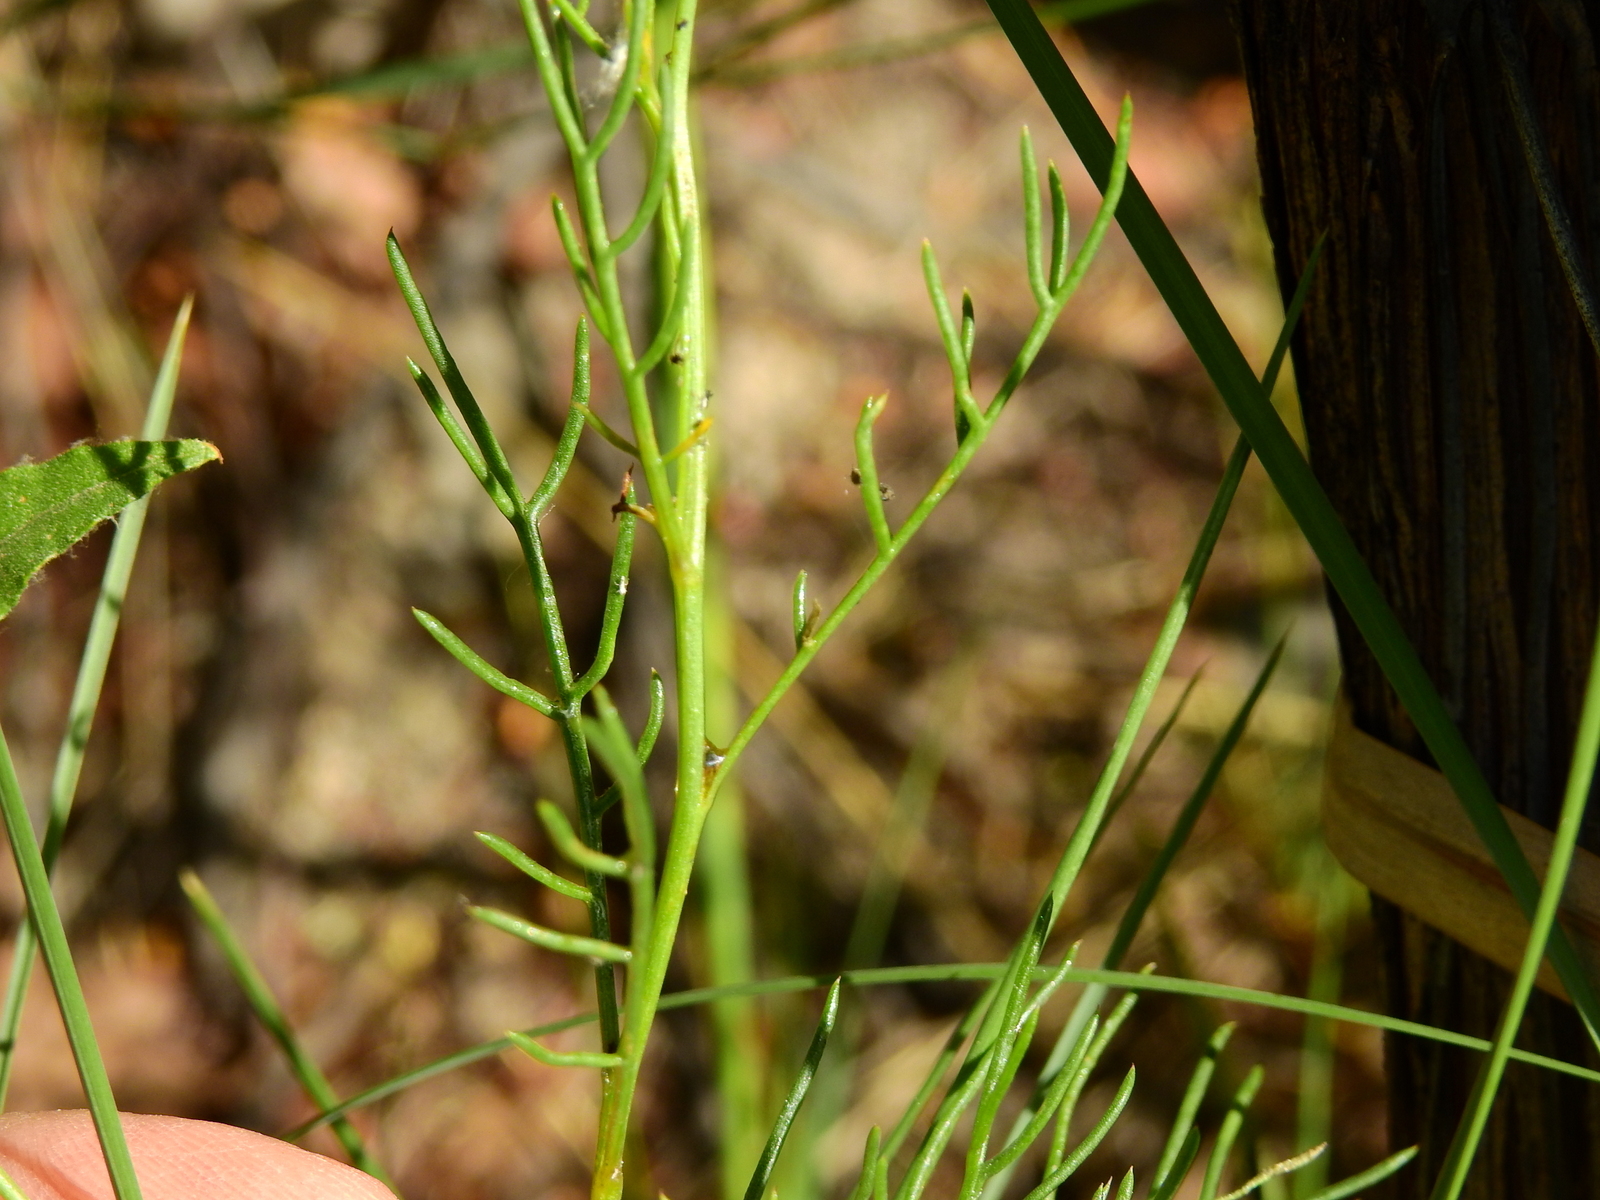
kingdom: Plantae
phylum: Tracheophyta
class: Magnoliopsida
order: Asterales
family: Asteraceae
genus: Senecio
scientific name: Senecio pinnatus
